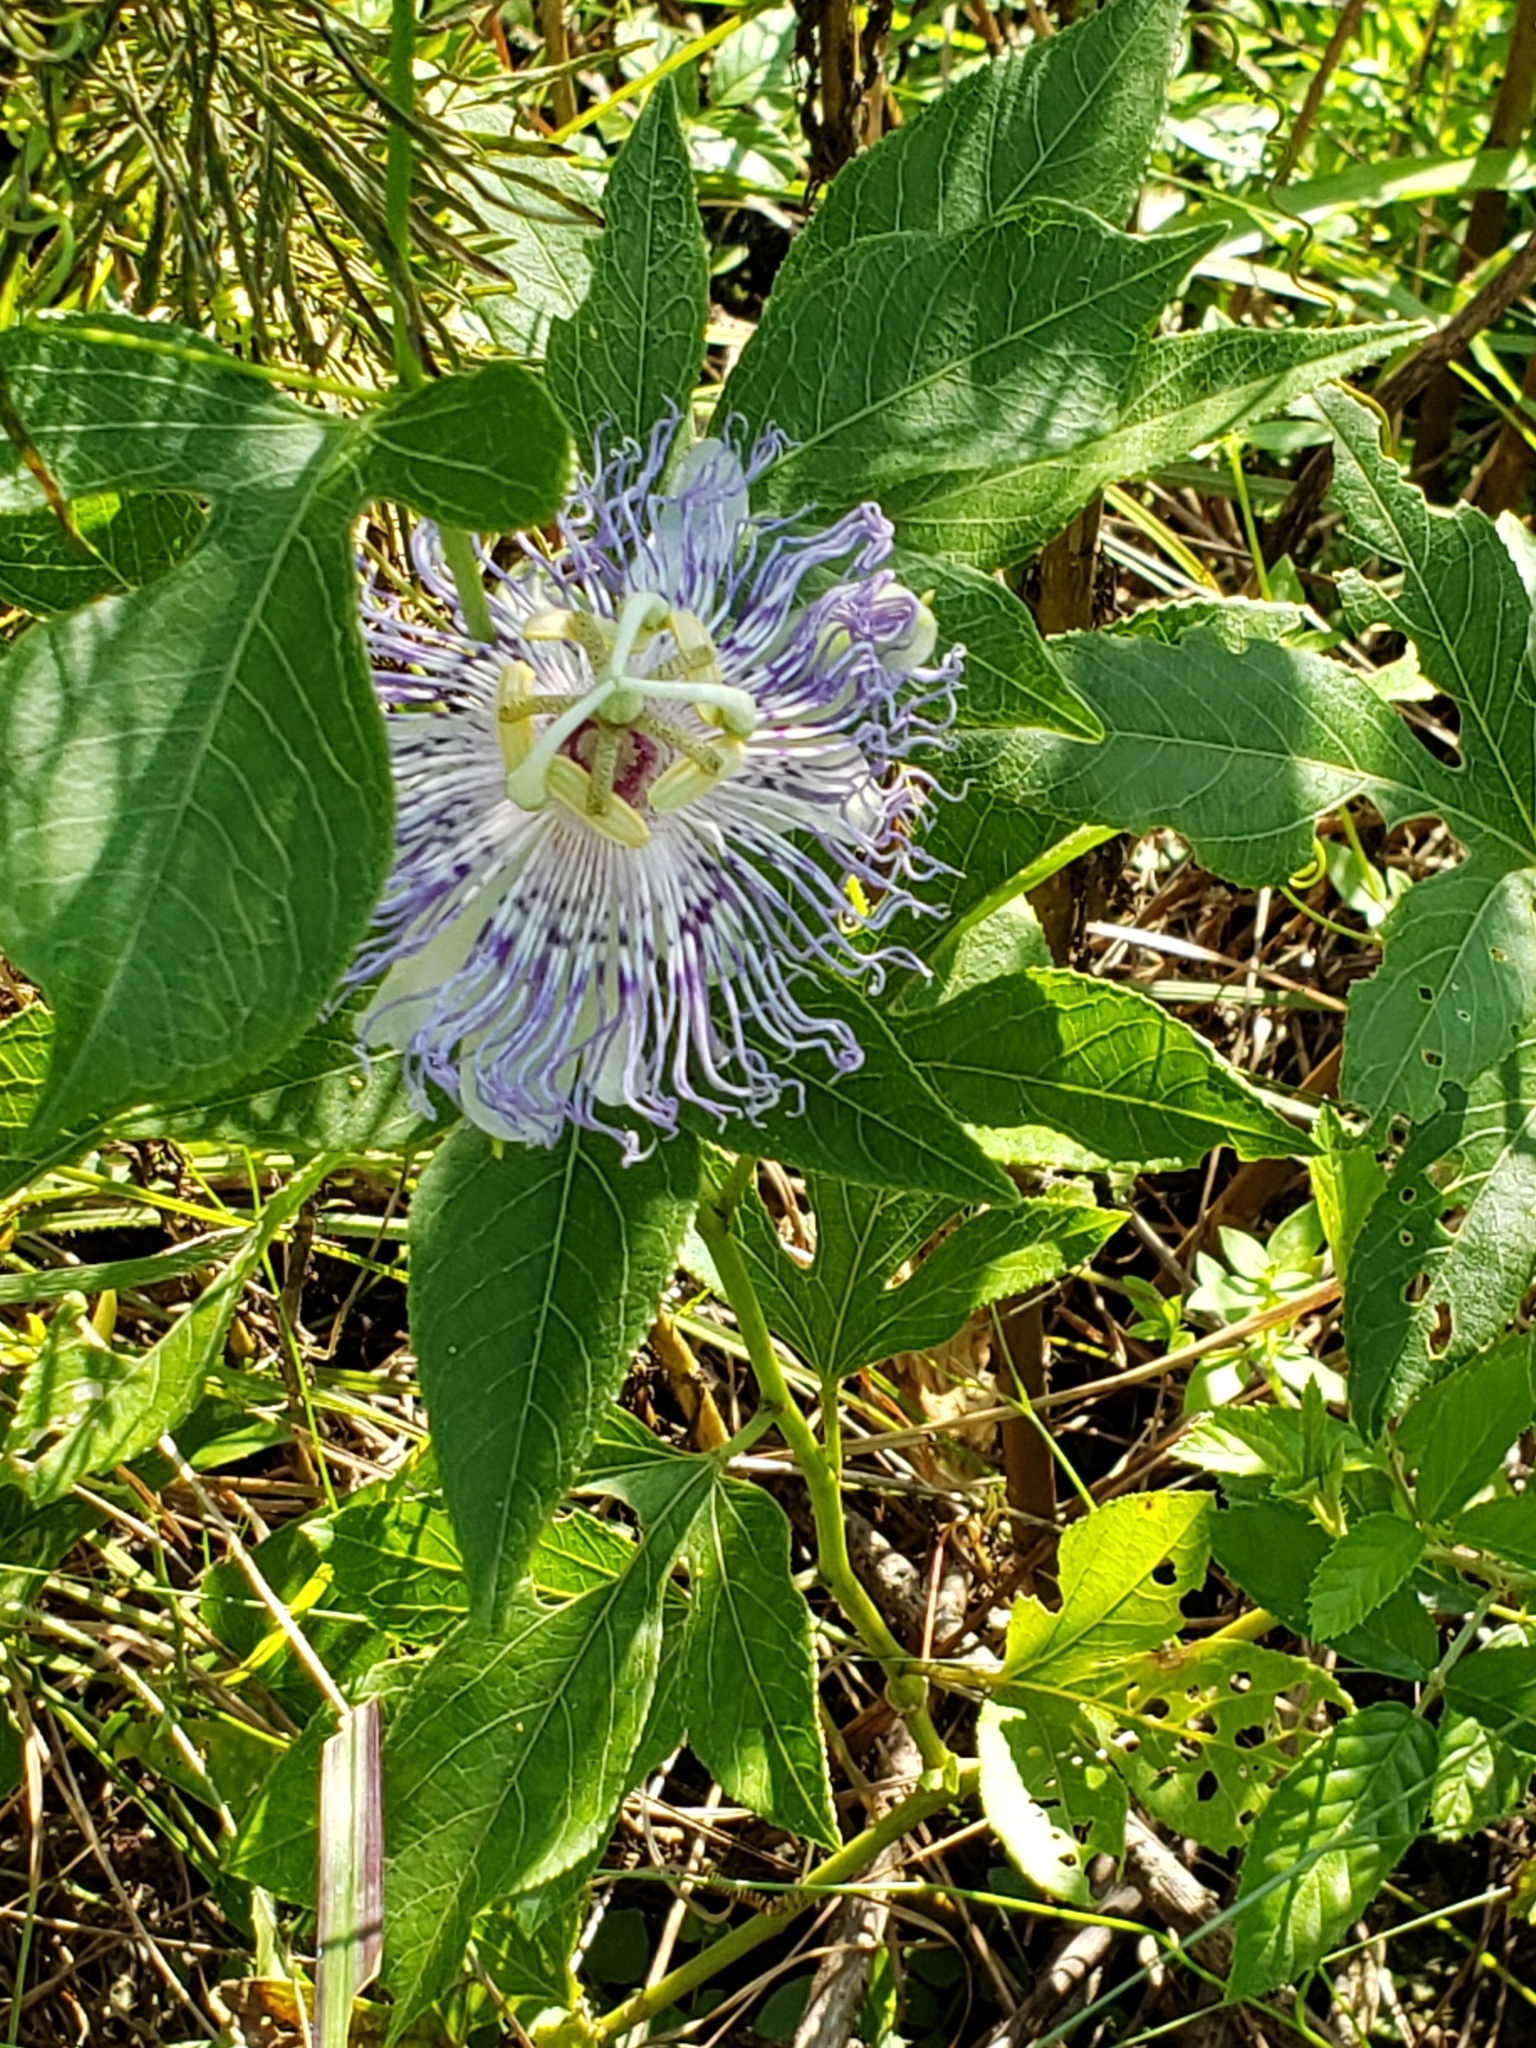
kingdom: Plantae
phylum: Tracheophyta
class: Magnoliopsida
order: Malpighiales
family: Passifloraceae
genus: Passiflora
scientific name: Passiflora incarnata
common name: Apricot-vine
